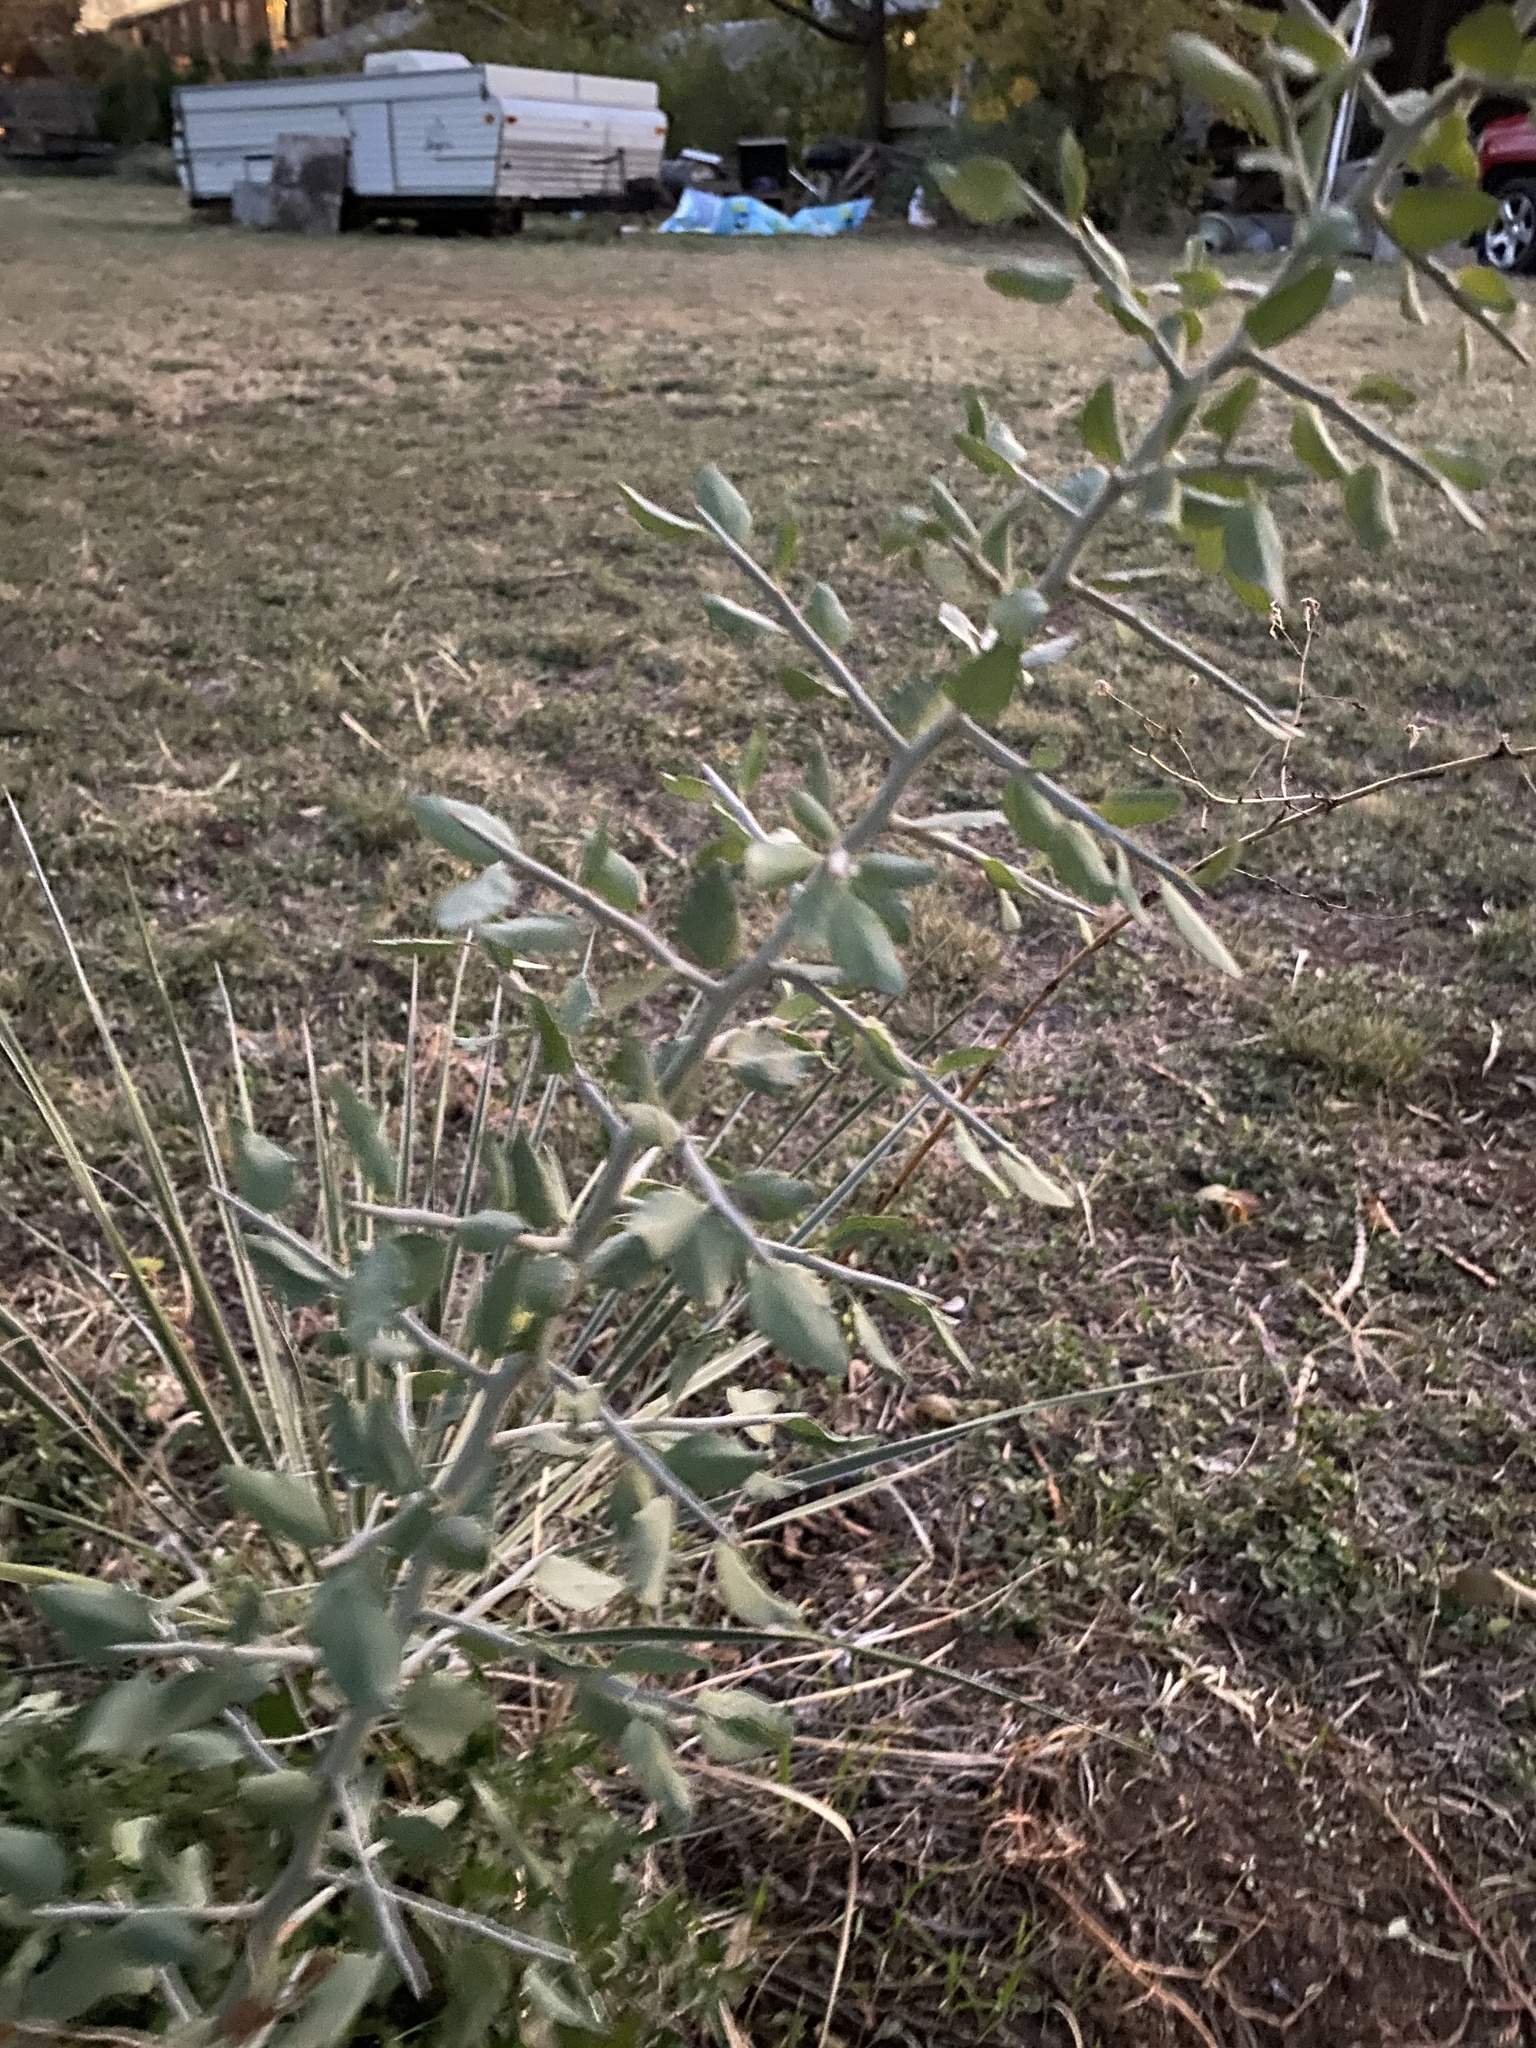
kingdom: Plantae
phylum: Tracheophyta
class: Magnoliopsida
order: Rosales
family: Rhamnaceae
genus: Sarcomphalus
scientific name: Sarcomphalus obtusifolius
